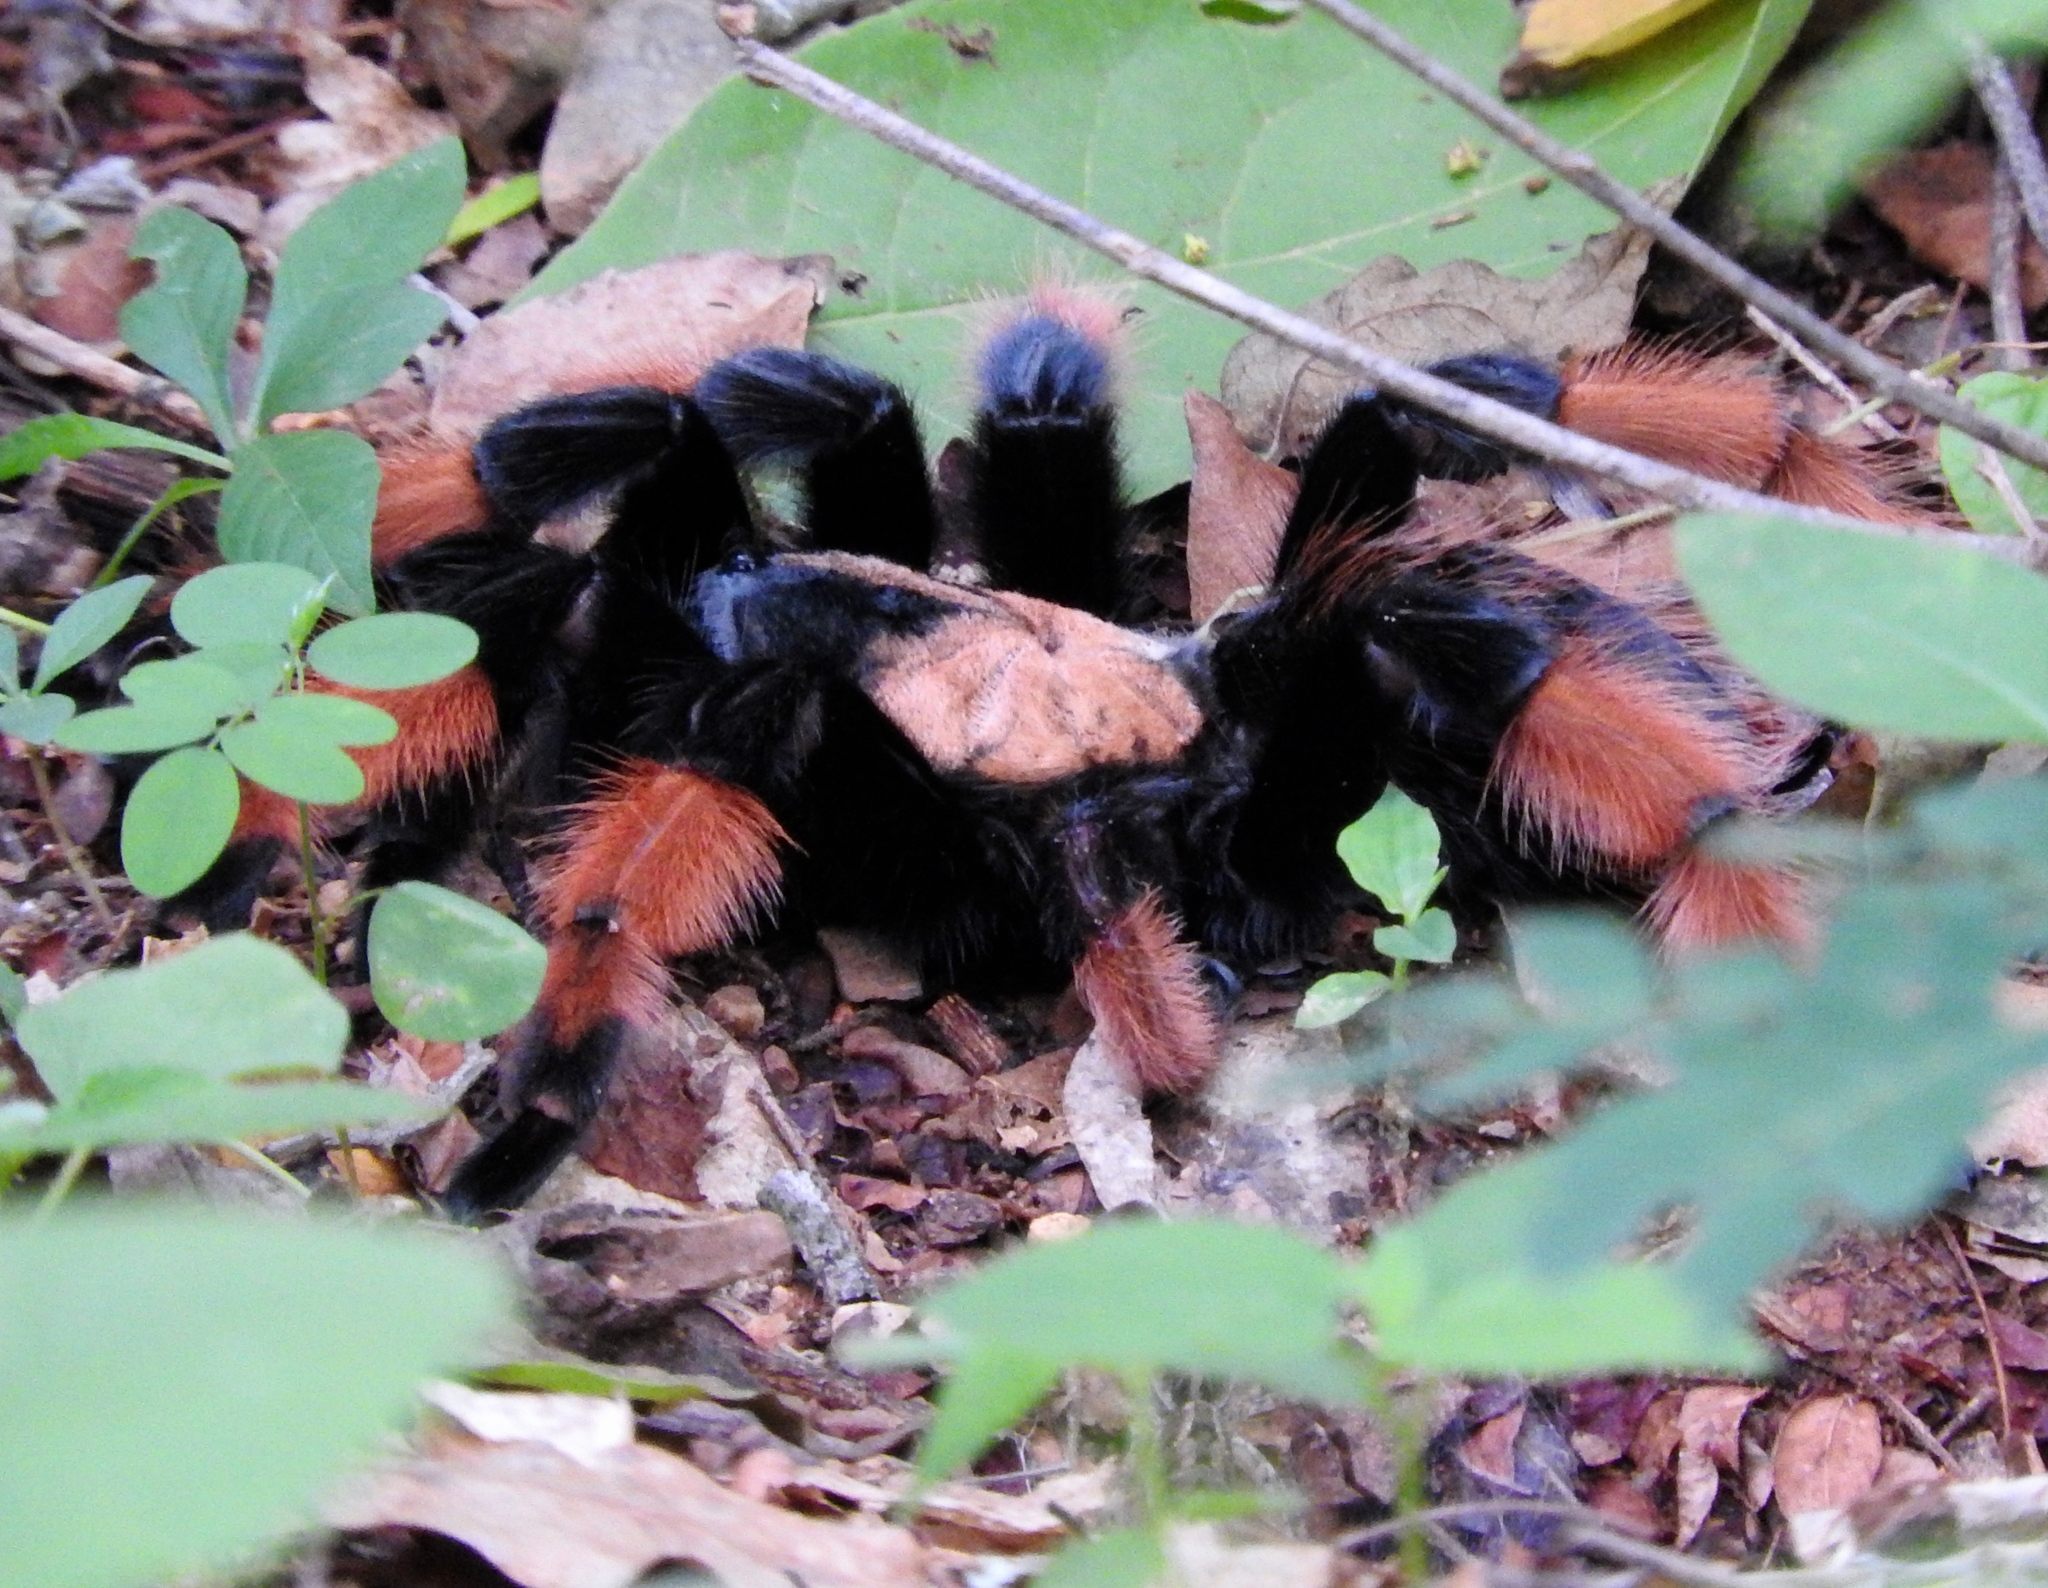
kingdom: Animalia
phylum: Arthropoda
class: Arachnida
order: Araneae
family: Theraphosidae
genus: Brachypelma
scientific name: Brachypelma emilia
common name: Mexican redleg
